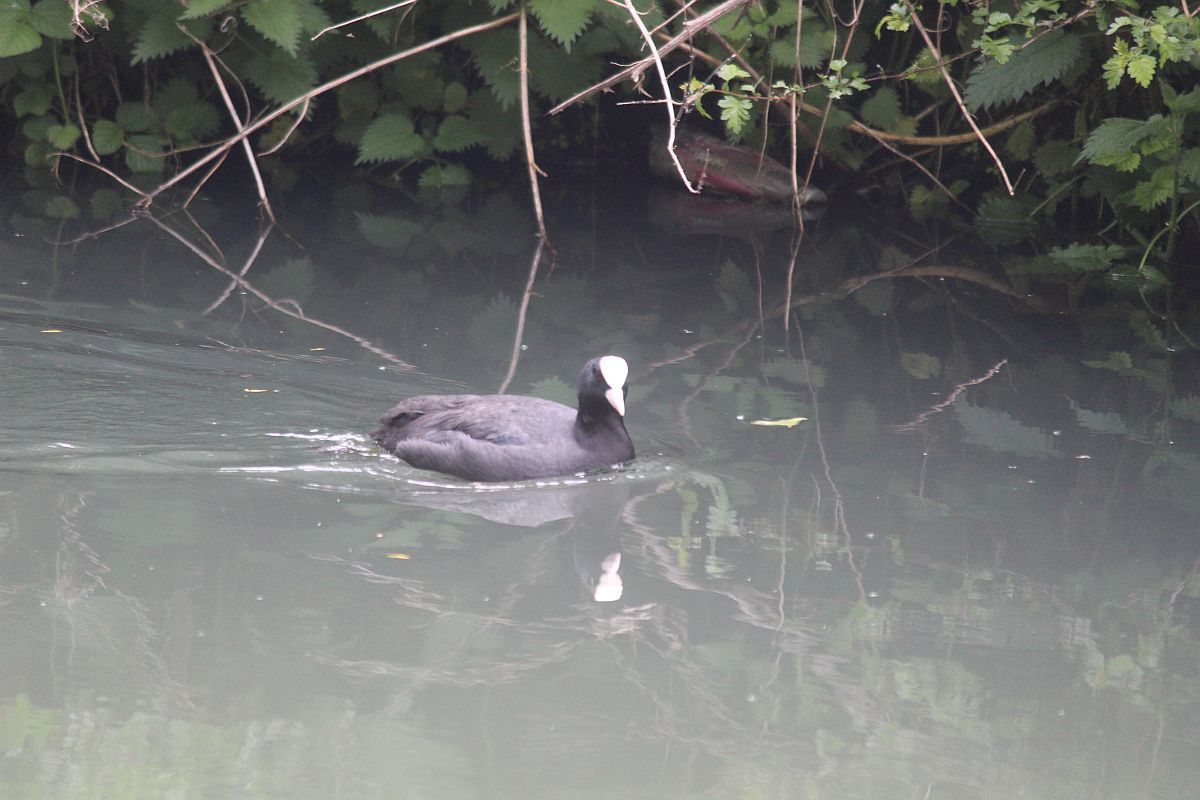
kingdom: Animalia
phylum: Chordata
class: Aves
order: Gruiformes
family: Rallidae
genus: Fulica
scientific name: Fulica atra
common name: Eurasian coot
